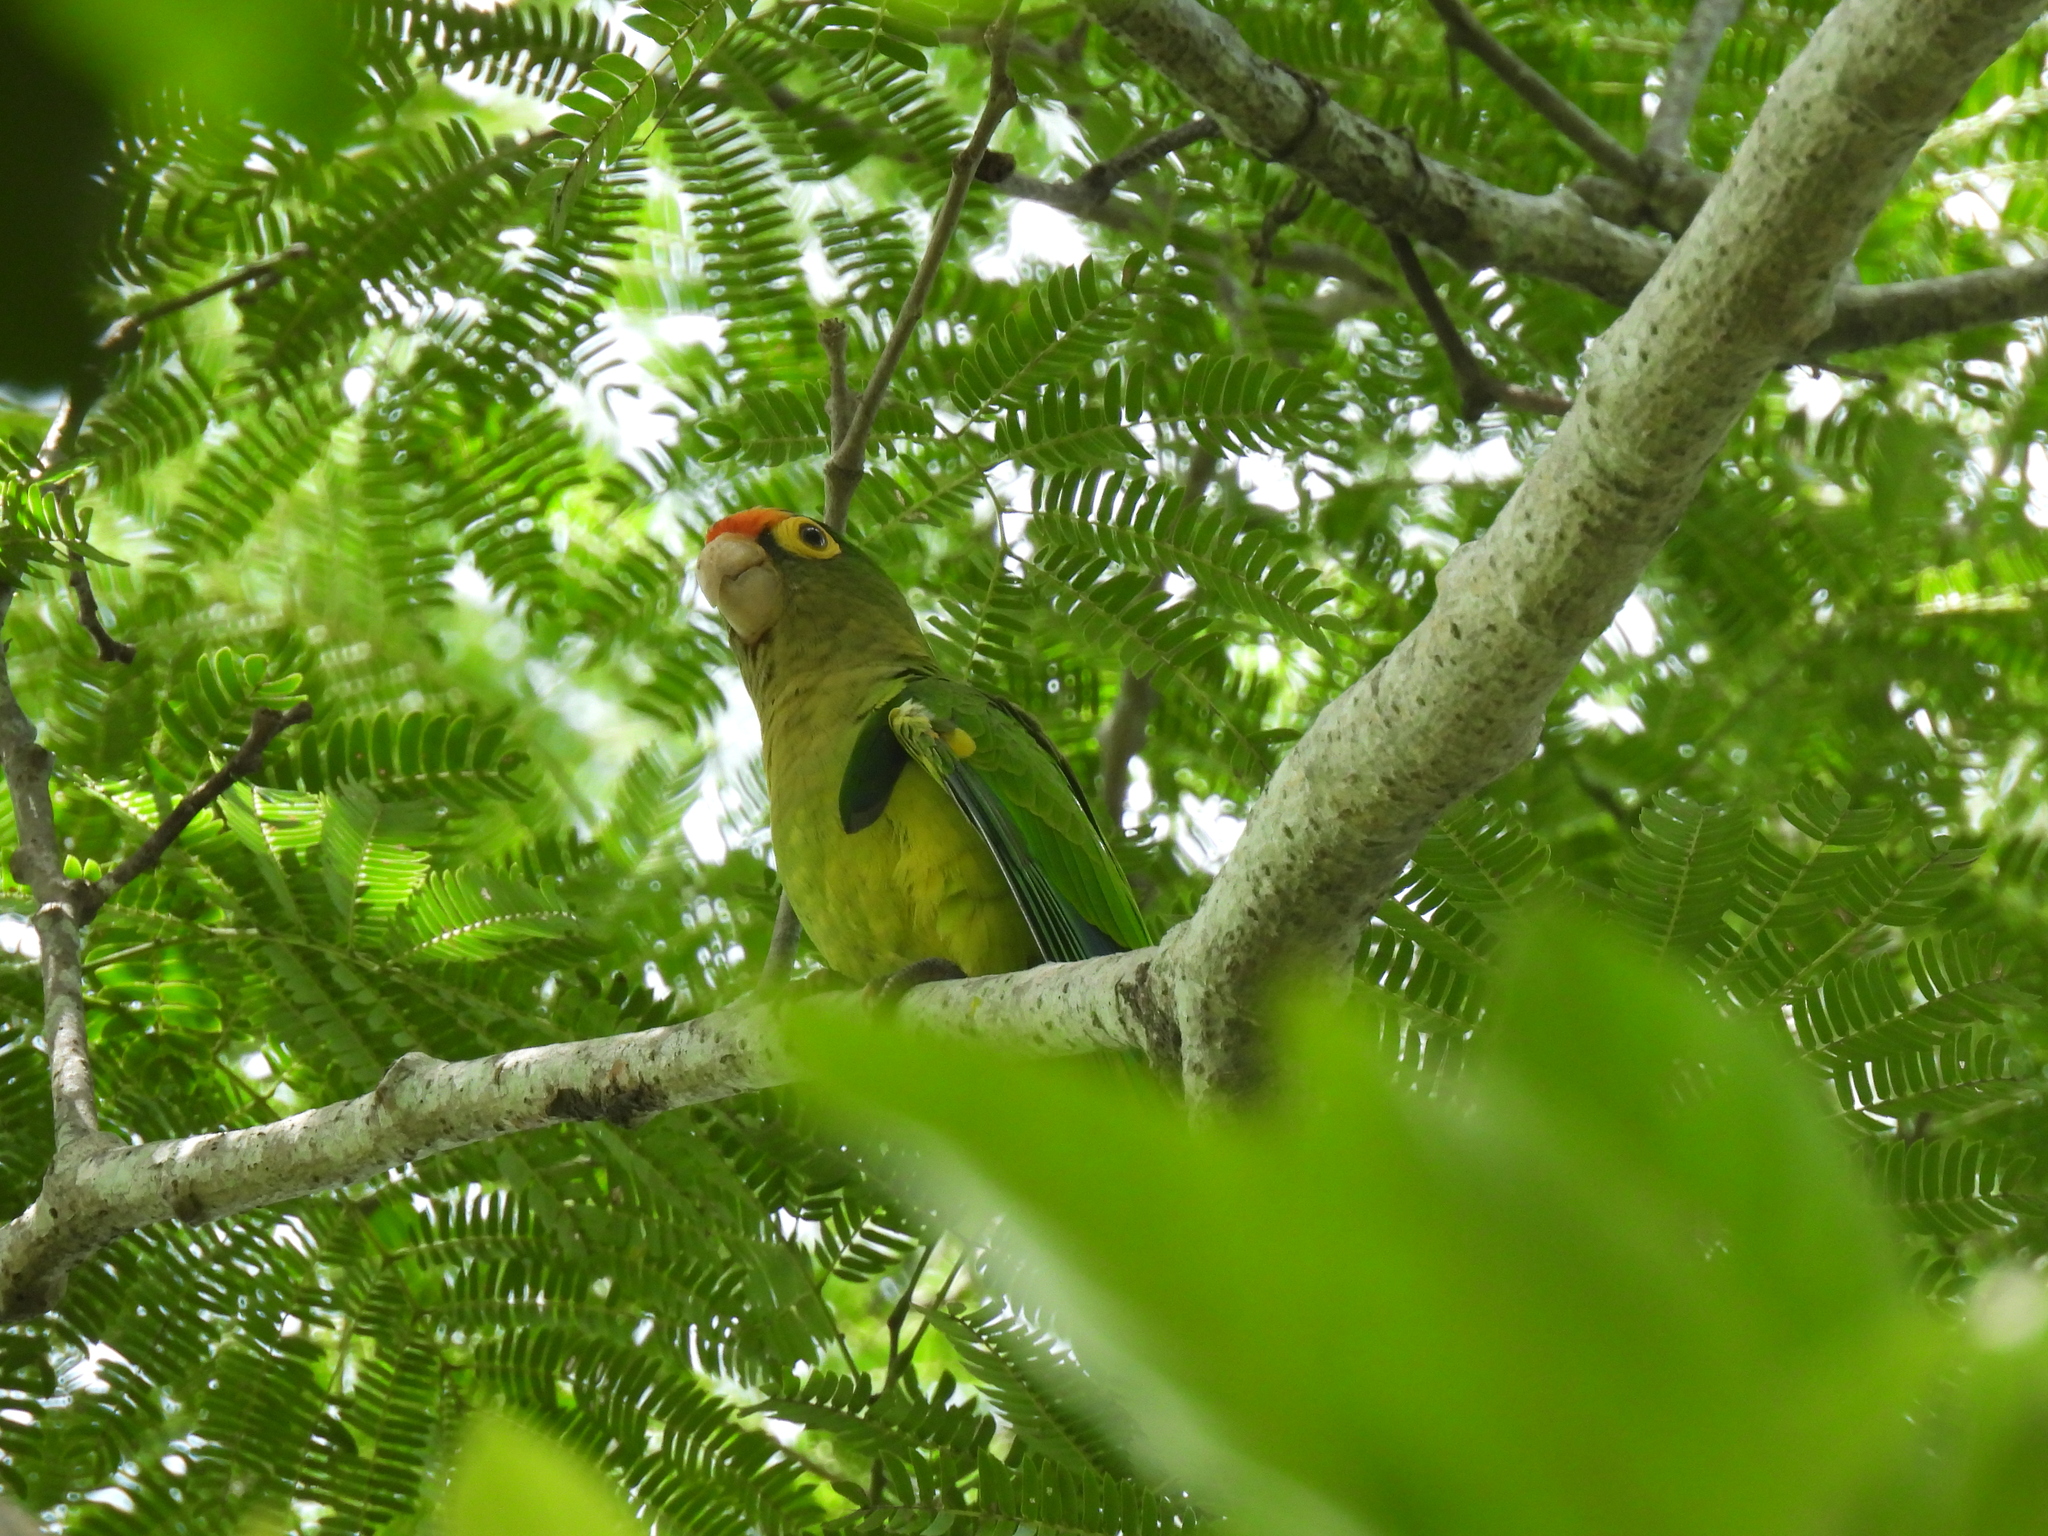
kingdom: Animalia
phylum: Chordata
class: Aves
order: Psittaciformes
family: Psittacidae
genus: Aratinga
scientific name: Aratinga canicularis
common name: Orange-fronted parakeet
